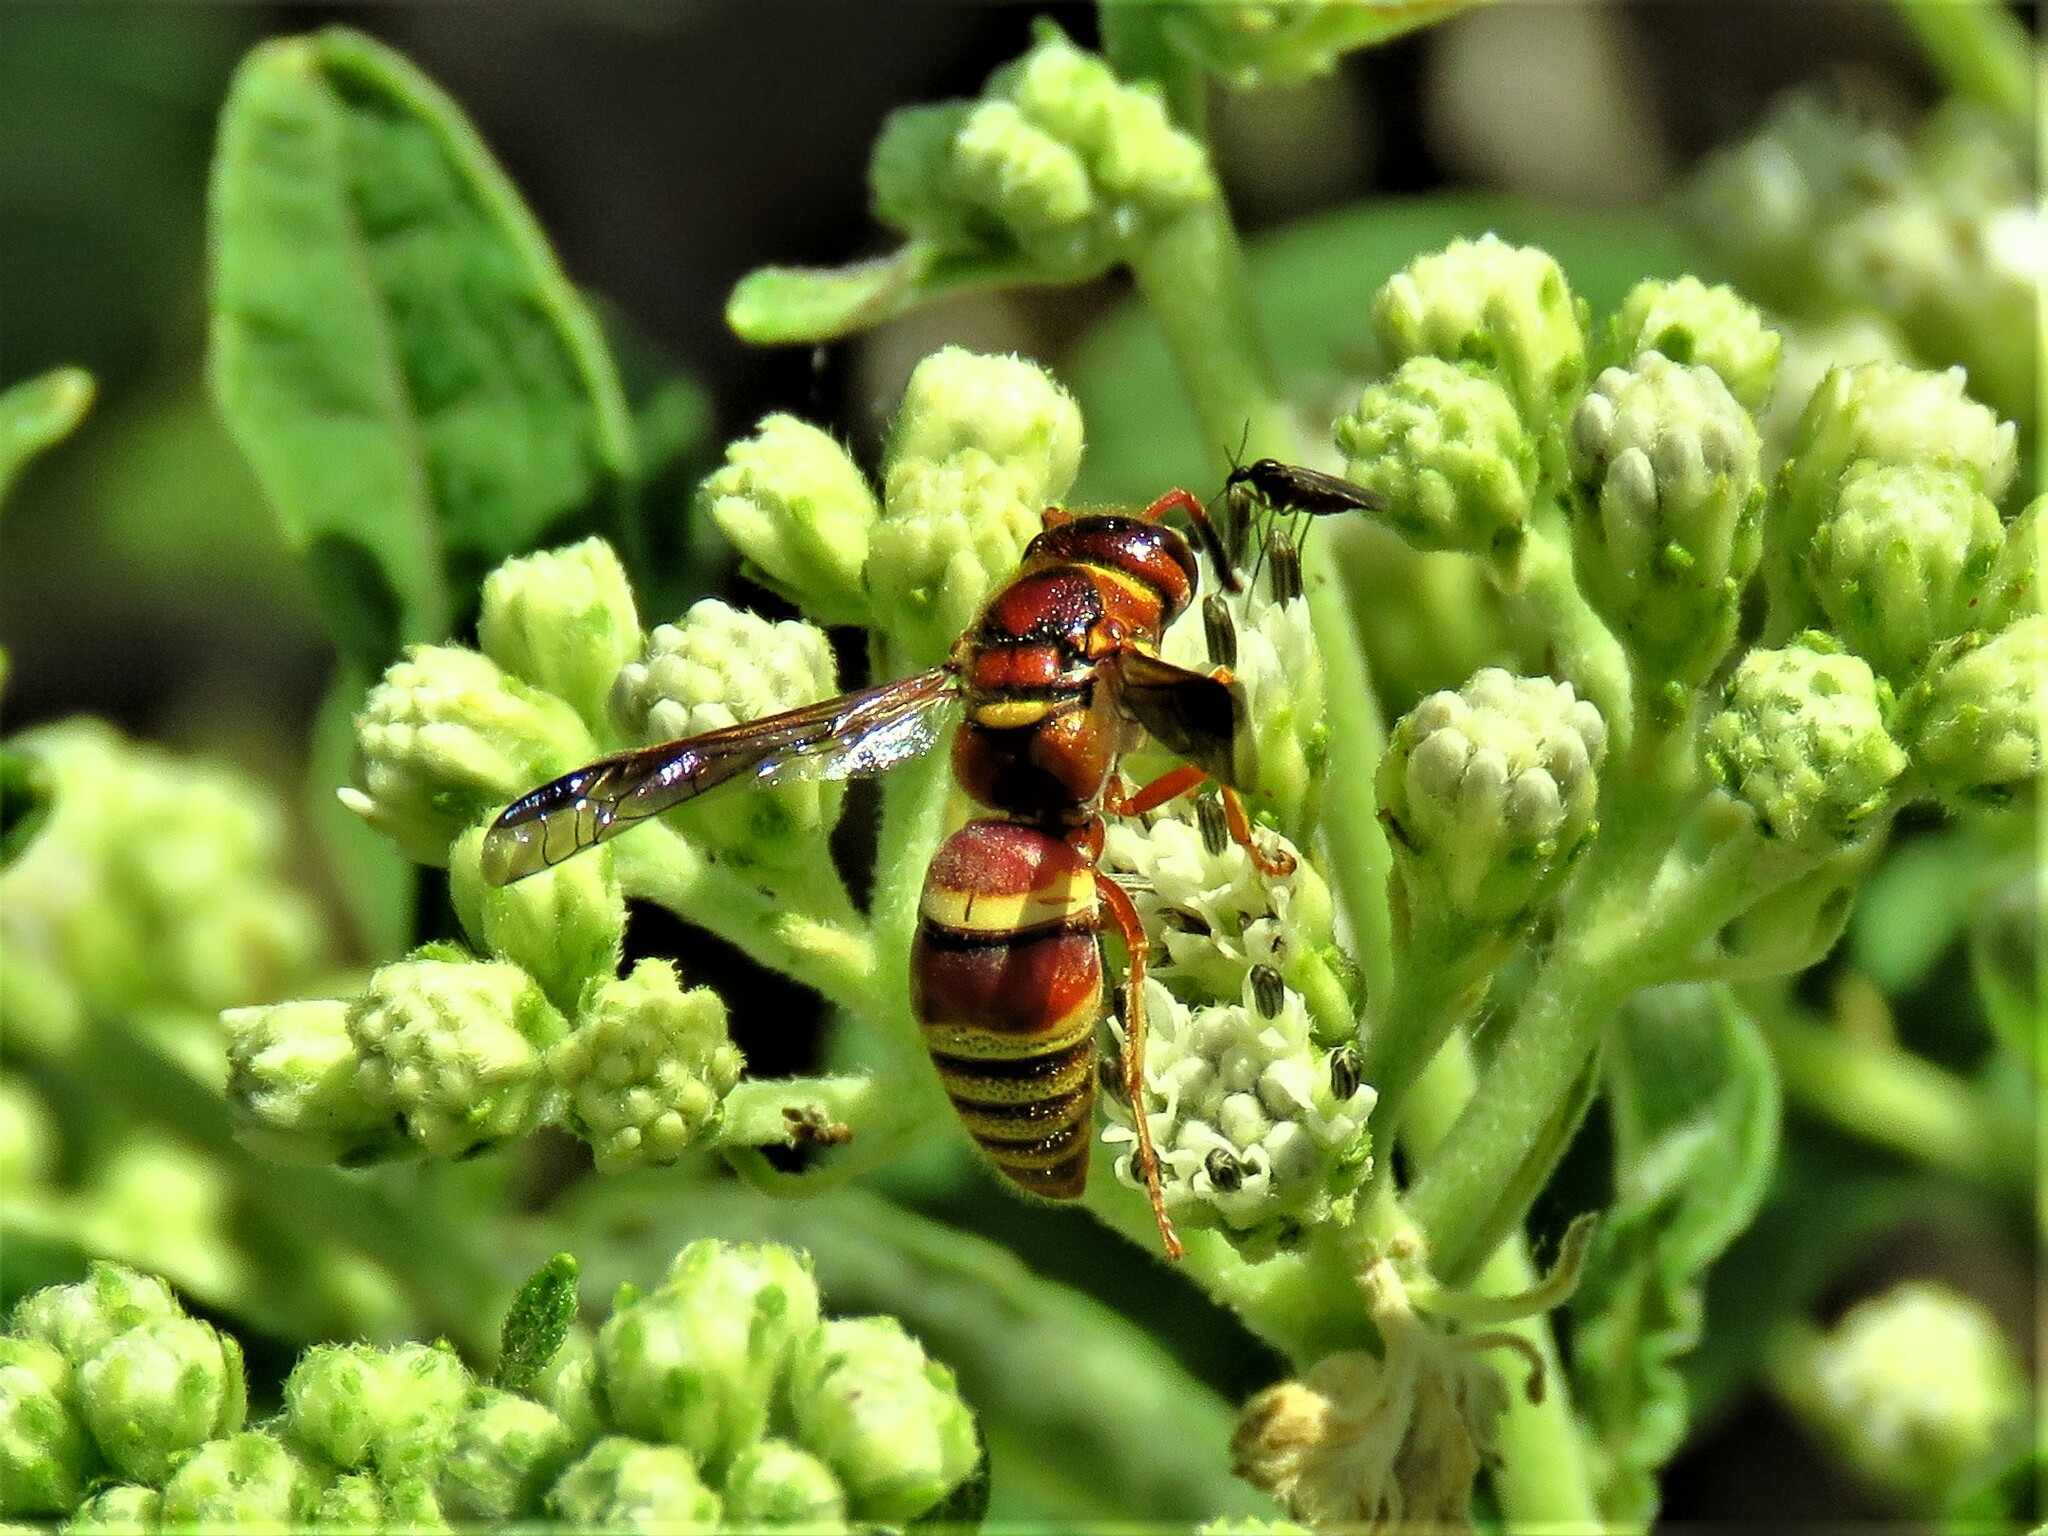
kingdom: Animalia
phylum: Arthropoda
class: Insecta
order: Hymenoptera
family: Eumenidae
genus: Euodynerus
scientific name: Euodynerus pratensis
